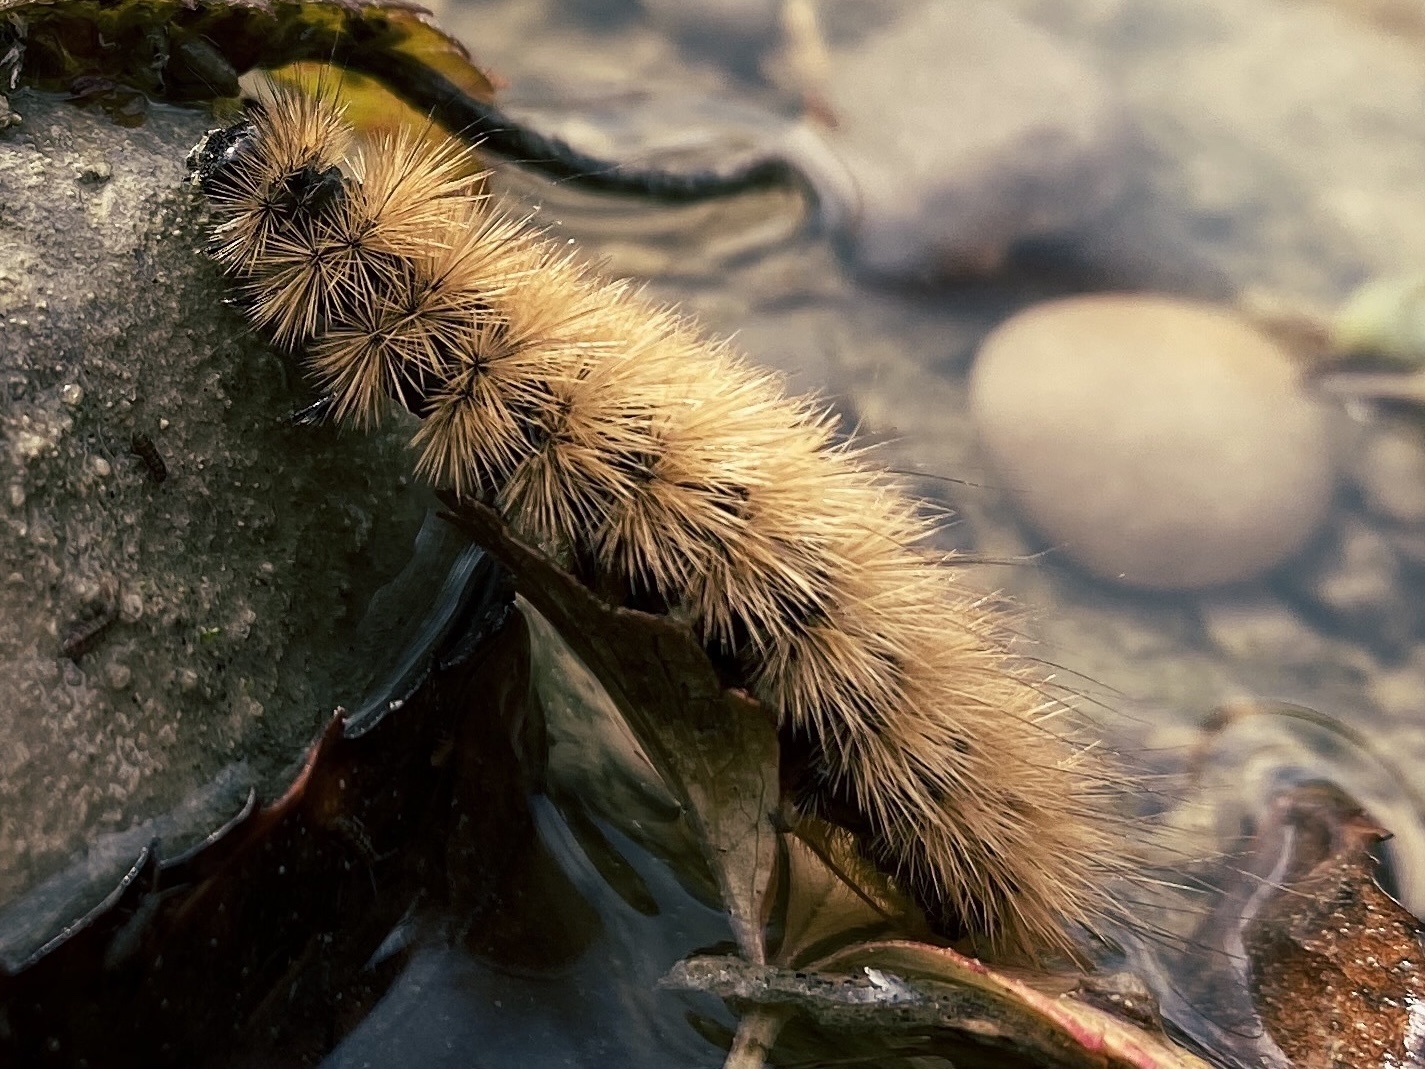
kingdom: Animalia
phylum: Arthropoda
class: Insecta
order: Lepidoptera
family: Erebidae
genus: Phragmatobia
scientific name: Phragmatobia fuliginosa
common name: Ruby tiger
